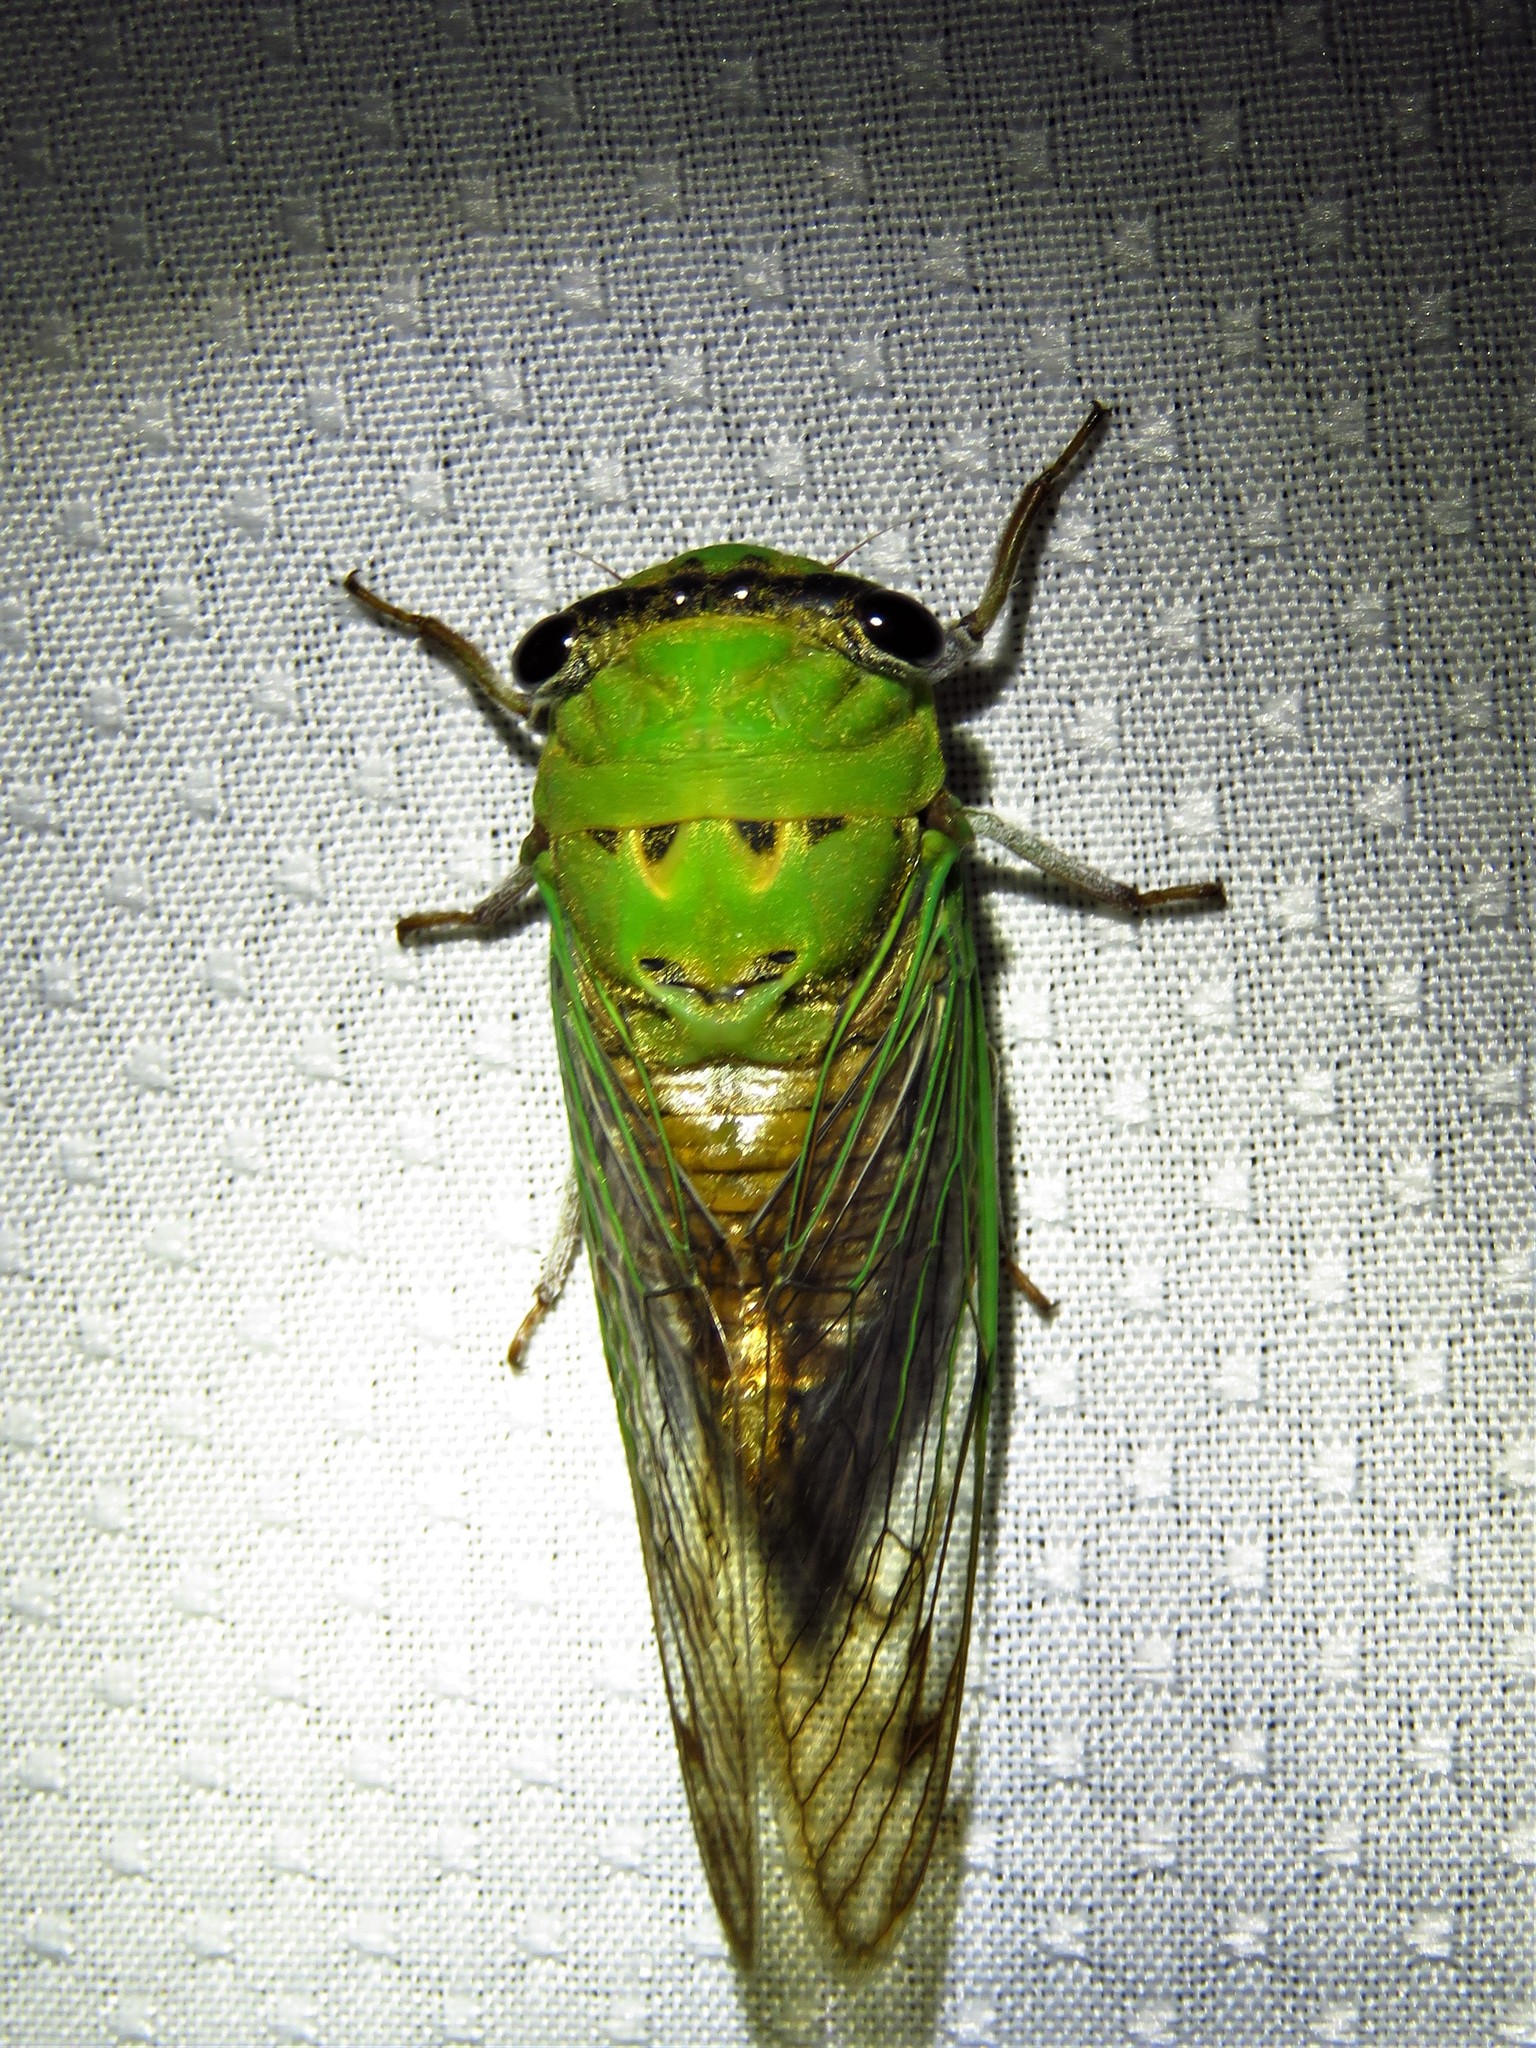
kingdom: Animalia
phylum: Arthropoda
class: Insecta
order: Hemiptera
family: Cicadidae
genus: Neotibicen
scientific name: Neotibicen superbus
